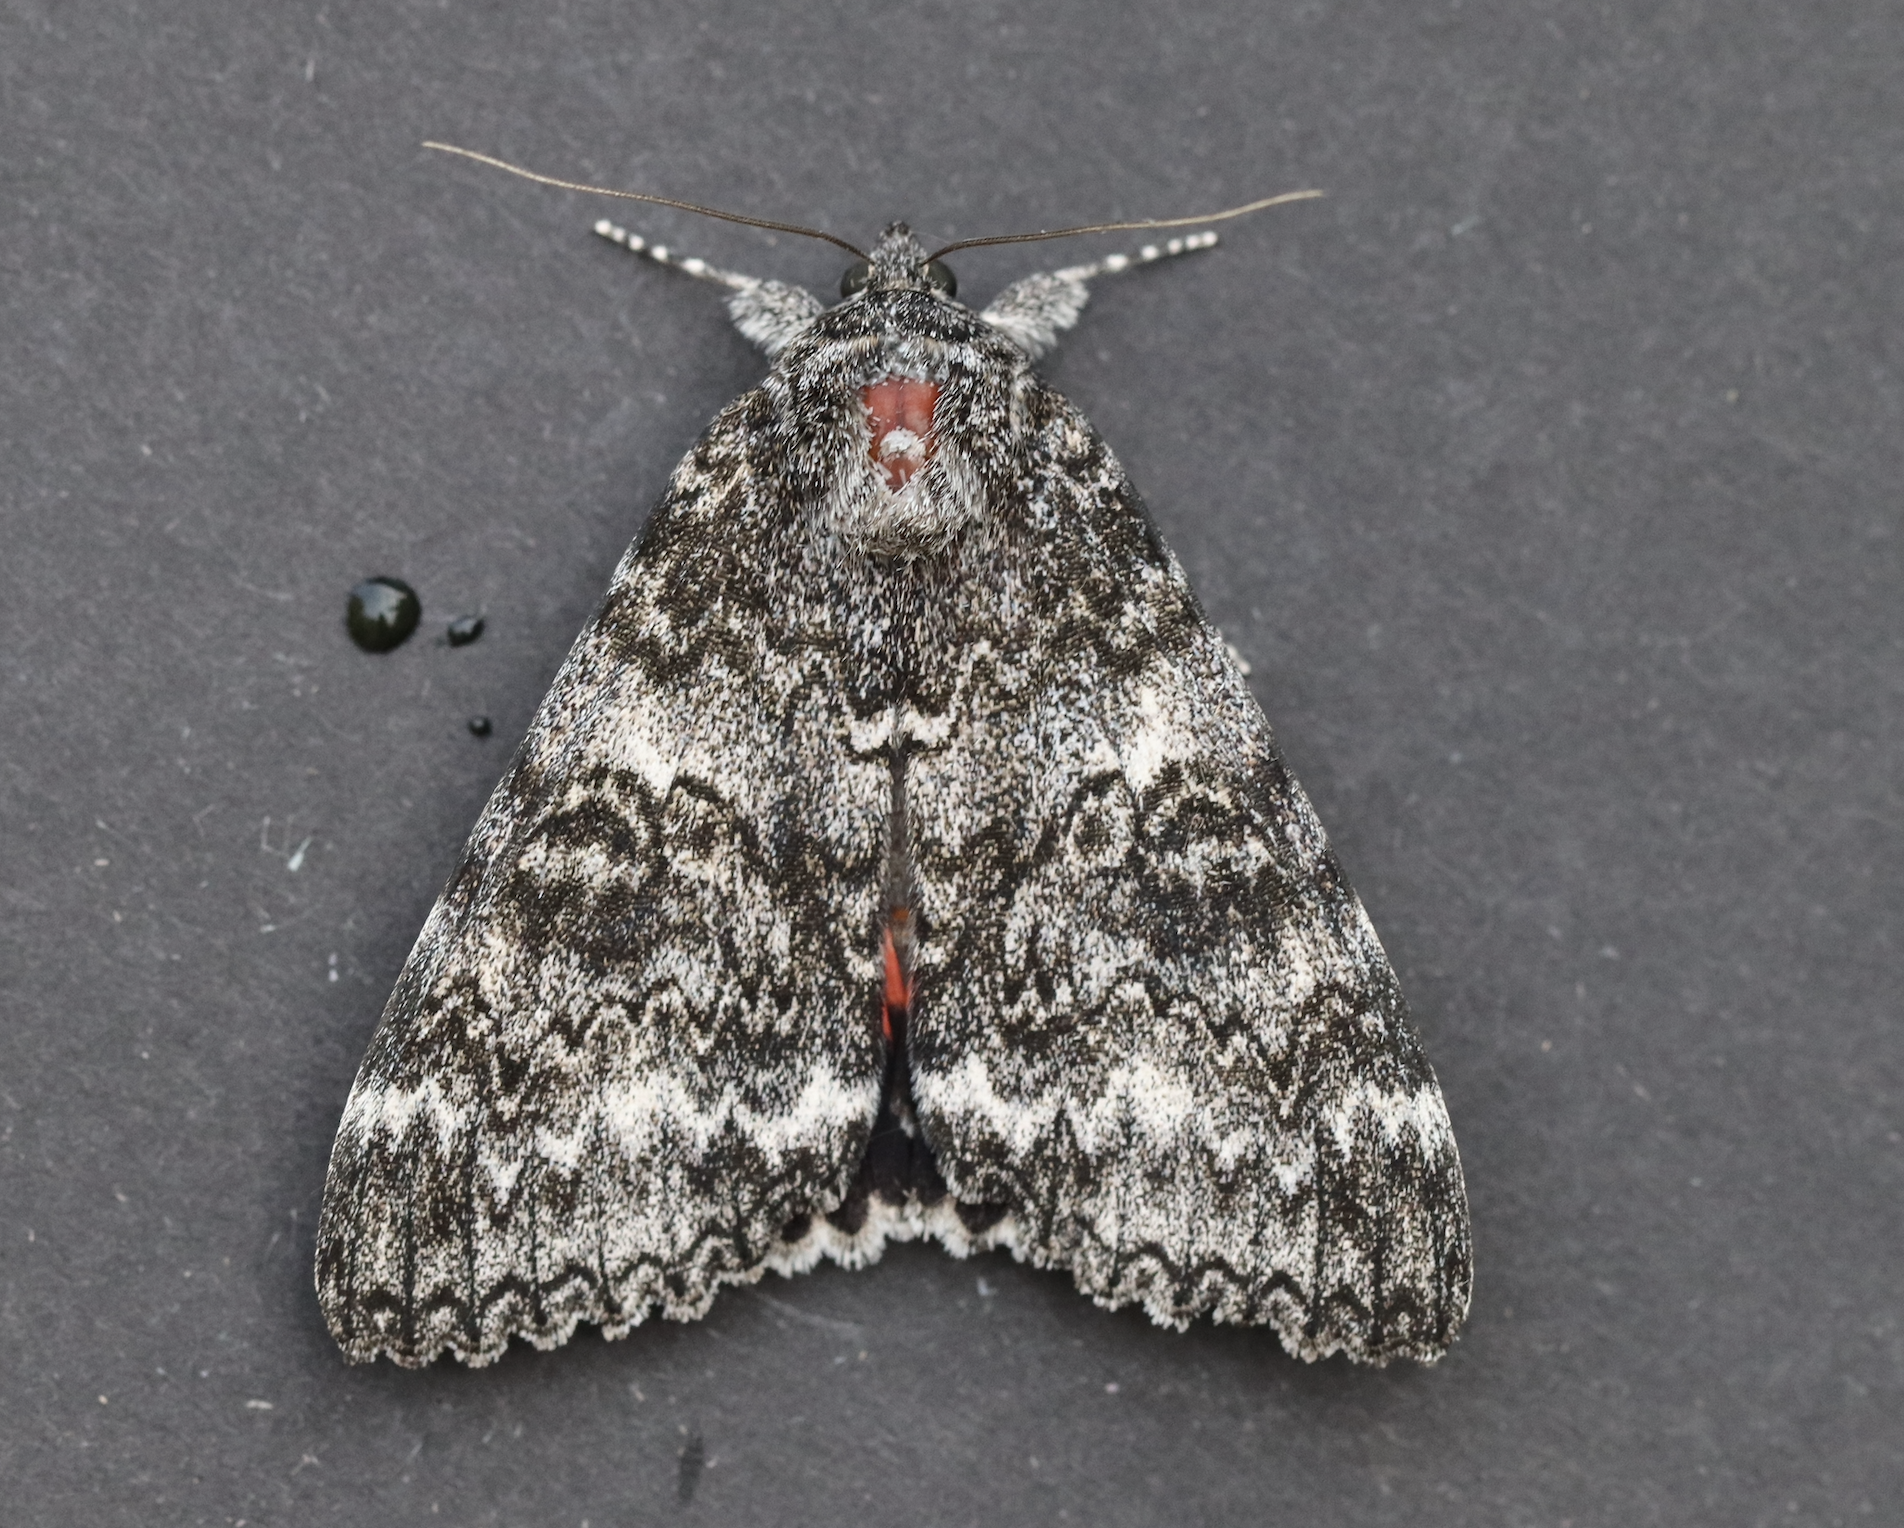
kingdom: Animalia
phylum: Arthropoda
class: Insecta
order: Lepidoptera
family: Erebidae
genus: Catocala
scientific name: Catocala unijuga
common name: Once-married underwing
